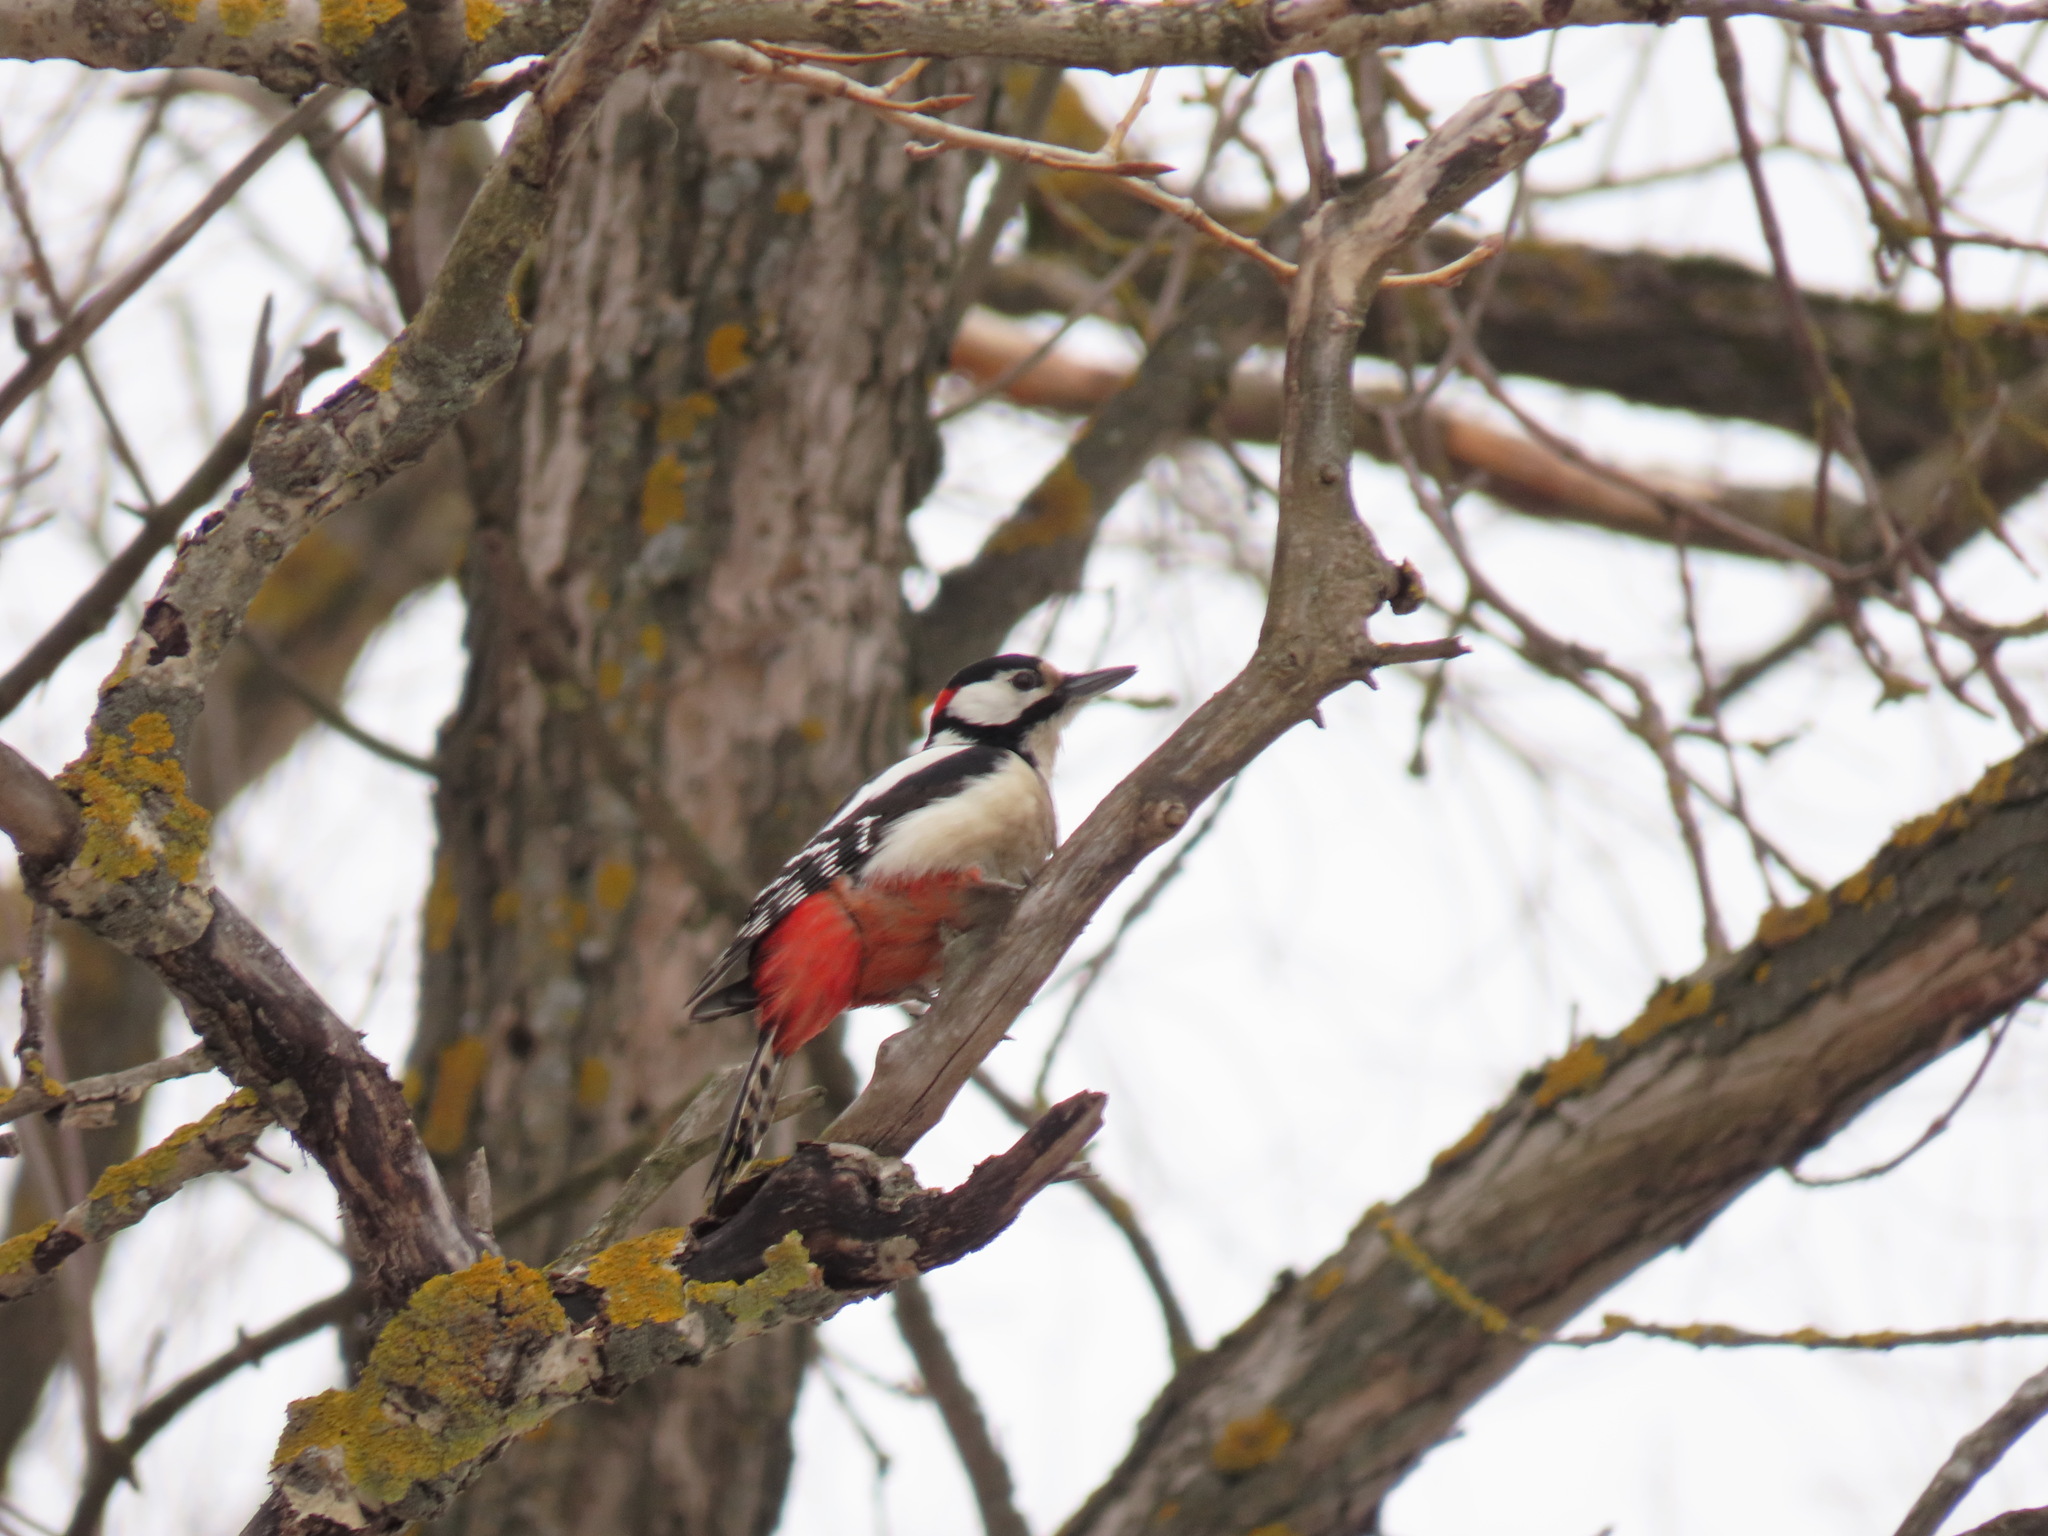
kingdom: Animalia
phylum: Chordata
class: Aves
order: Piciformes
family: Picidae
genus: Dendrocopos
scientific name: Dendrocopos major
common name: Great spotted woodpecker
